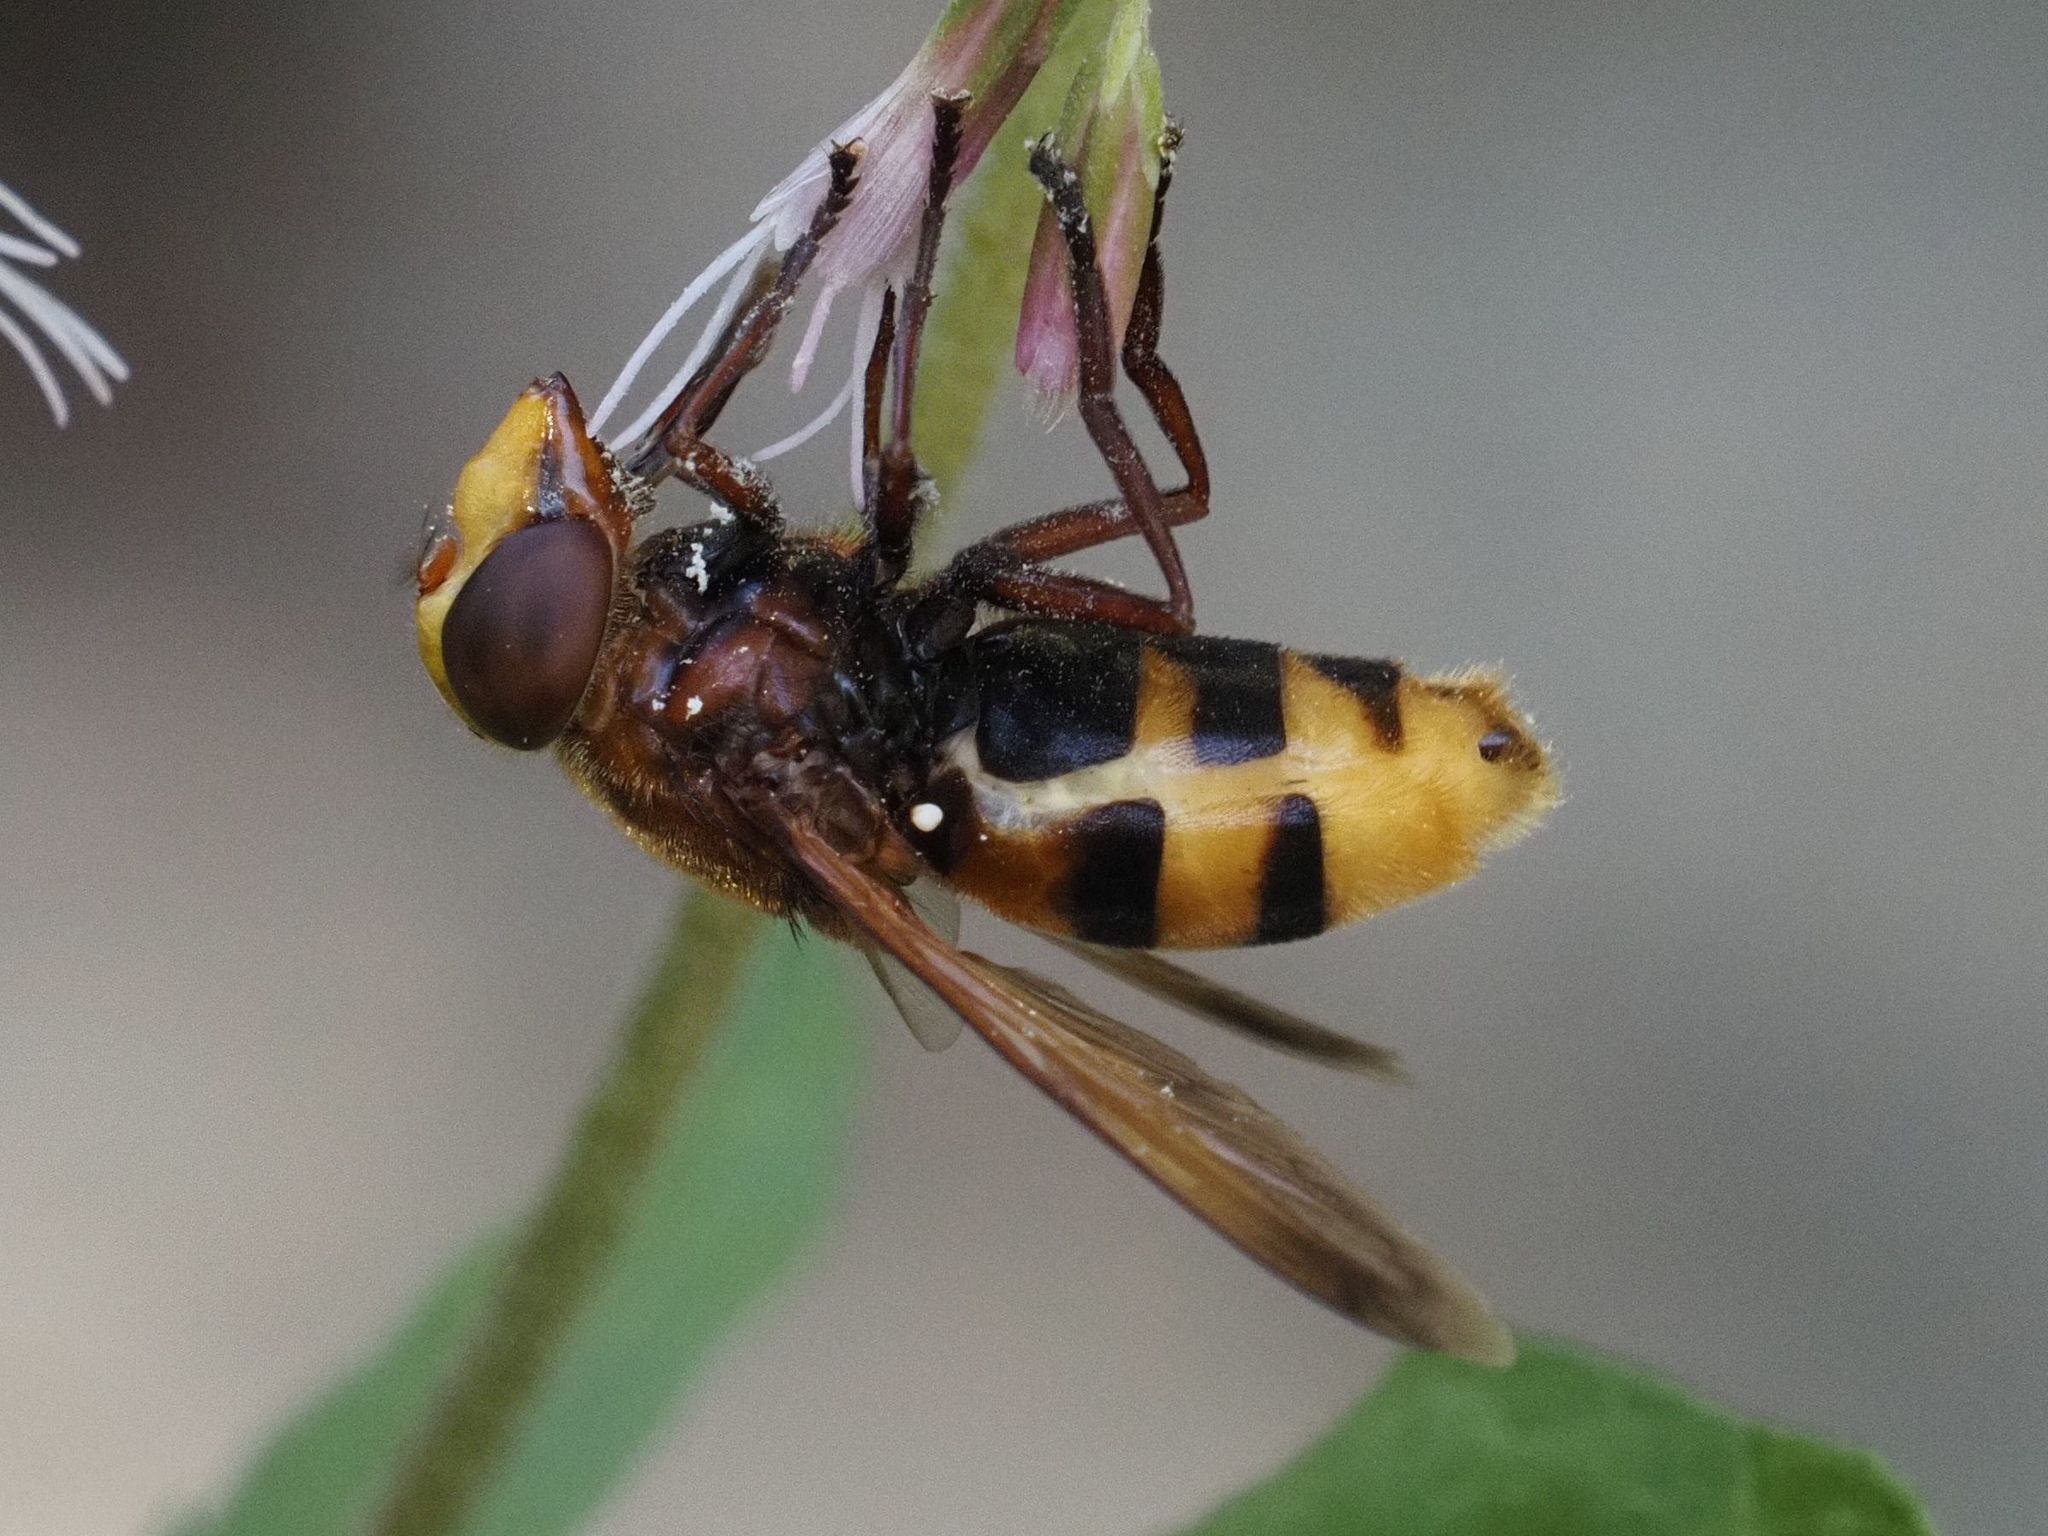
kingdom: Animalia
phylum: Arthropoda
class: Insecta
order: Diptera
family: Syrphidae
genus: Volucella
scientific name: Volucella zonaria
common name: Hornet hoverfly
